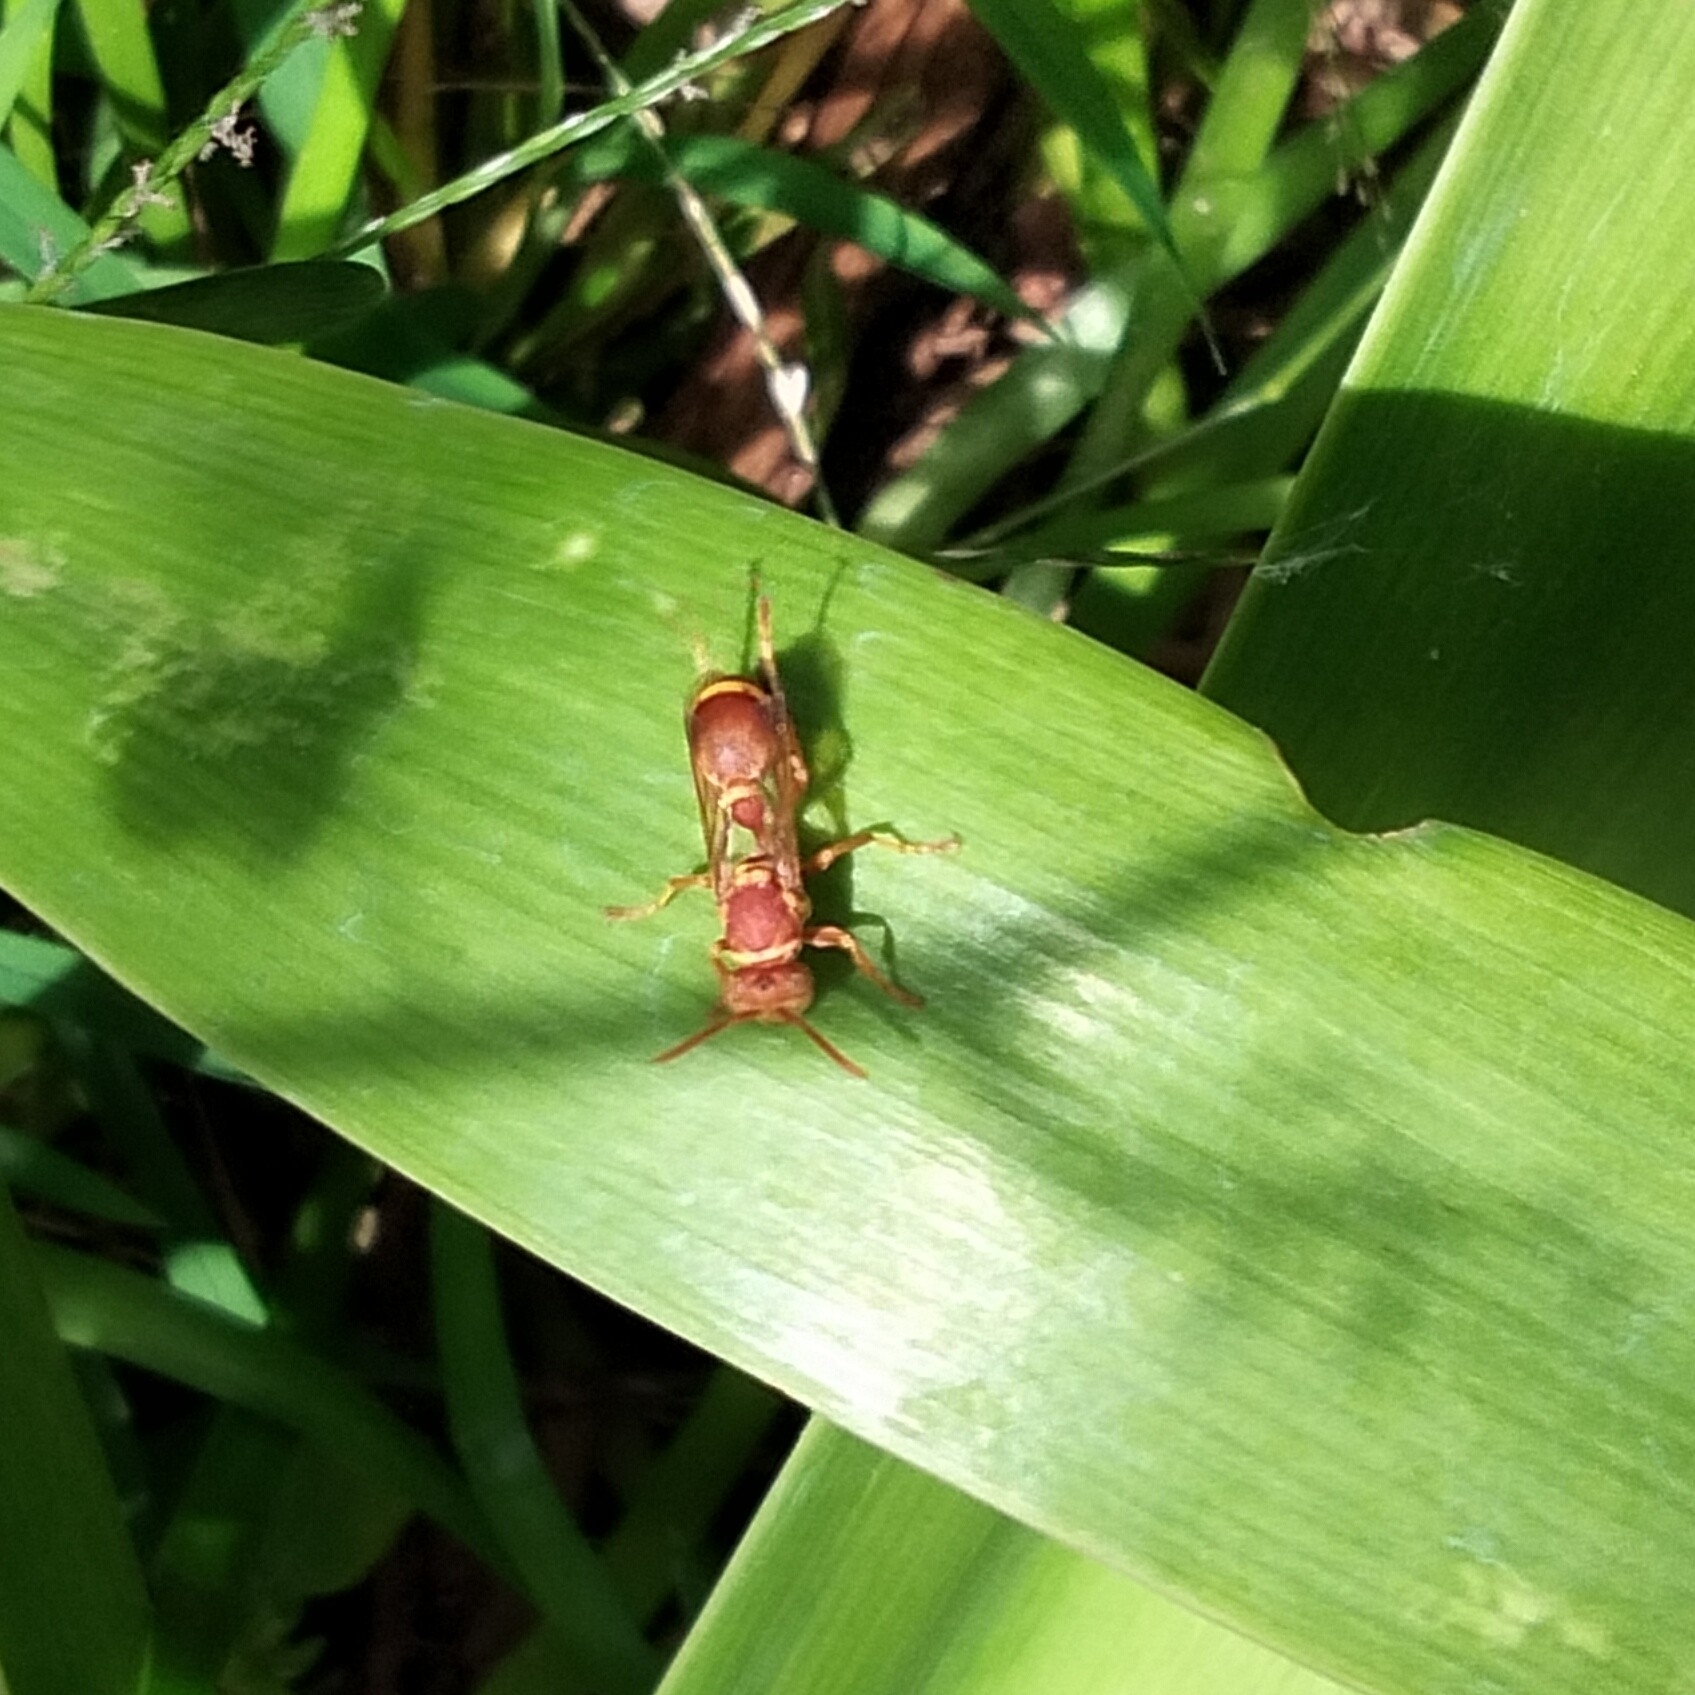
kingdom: Animalia
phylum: Arthropoda
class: Insecta
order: Hymenoptera
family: Vespidae
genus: Ropalidia
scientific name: Ropalidia marginata
